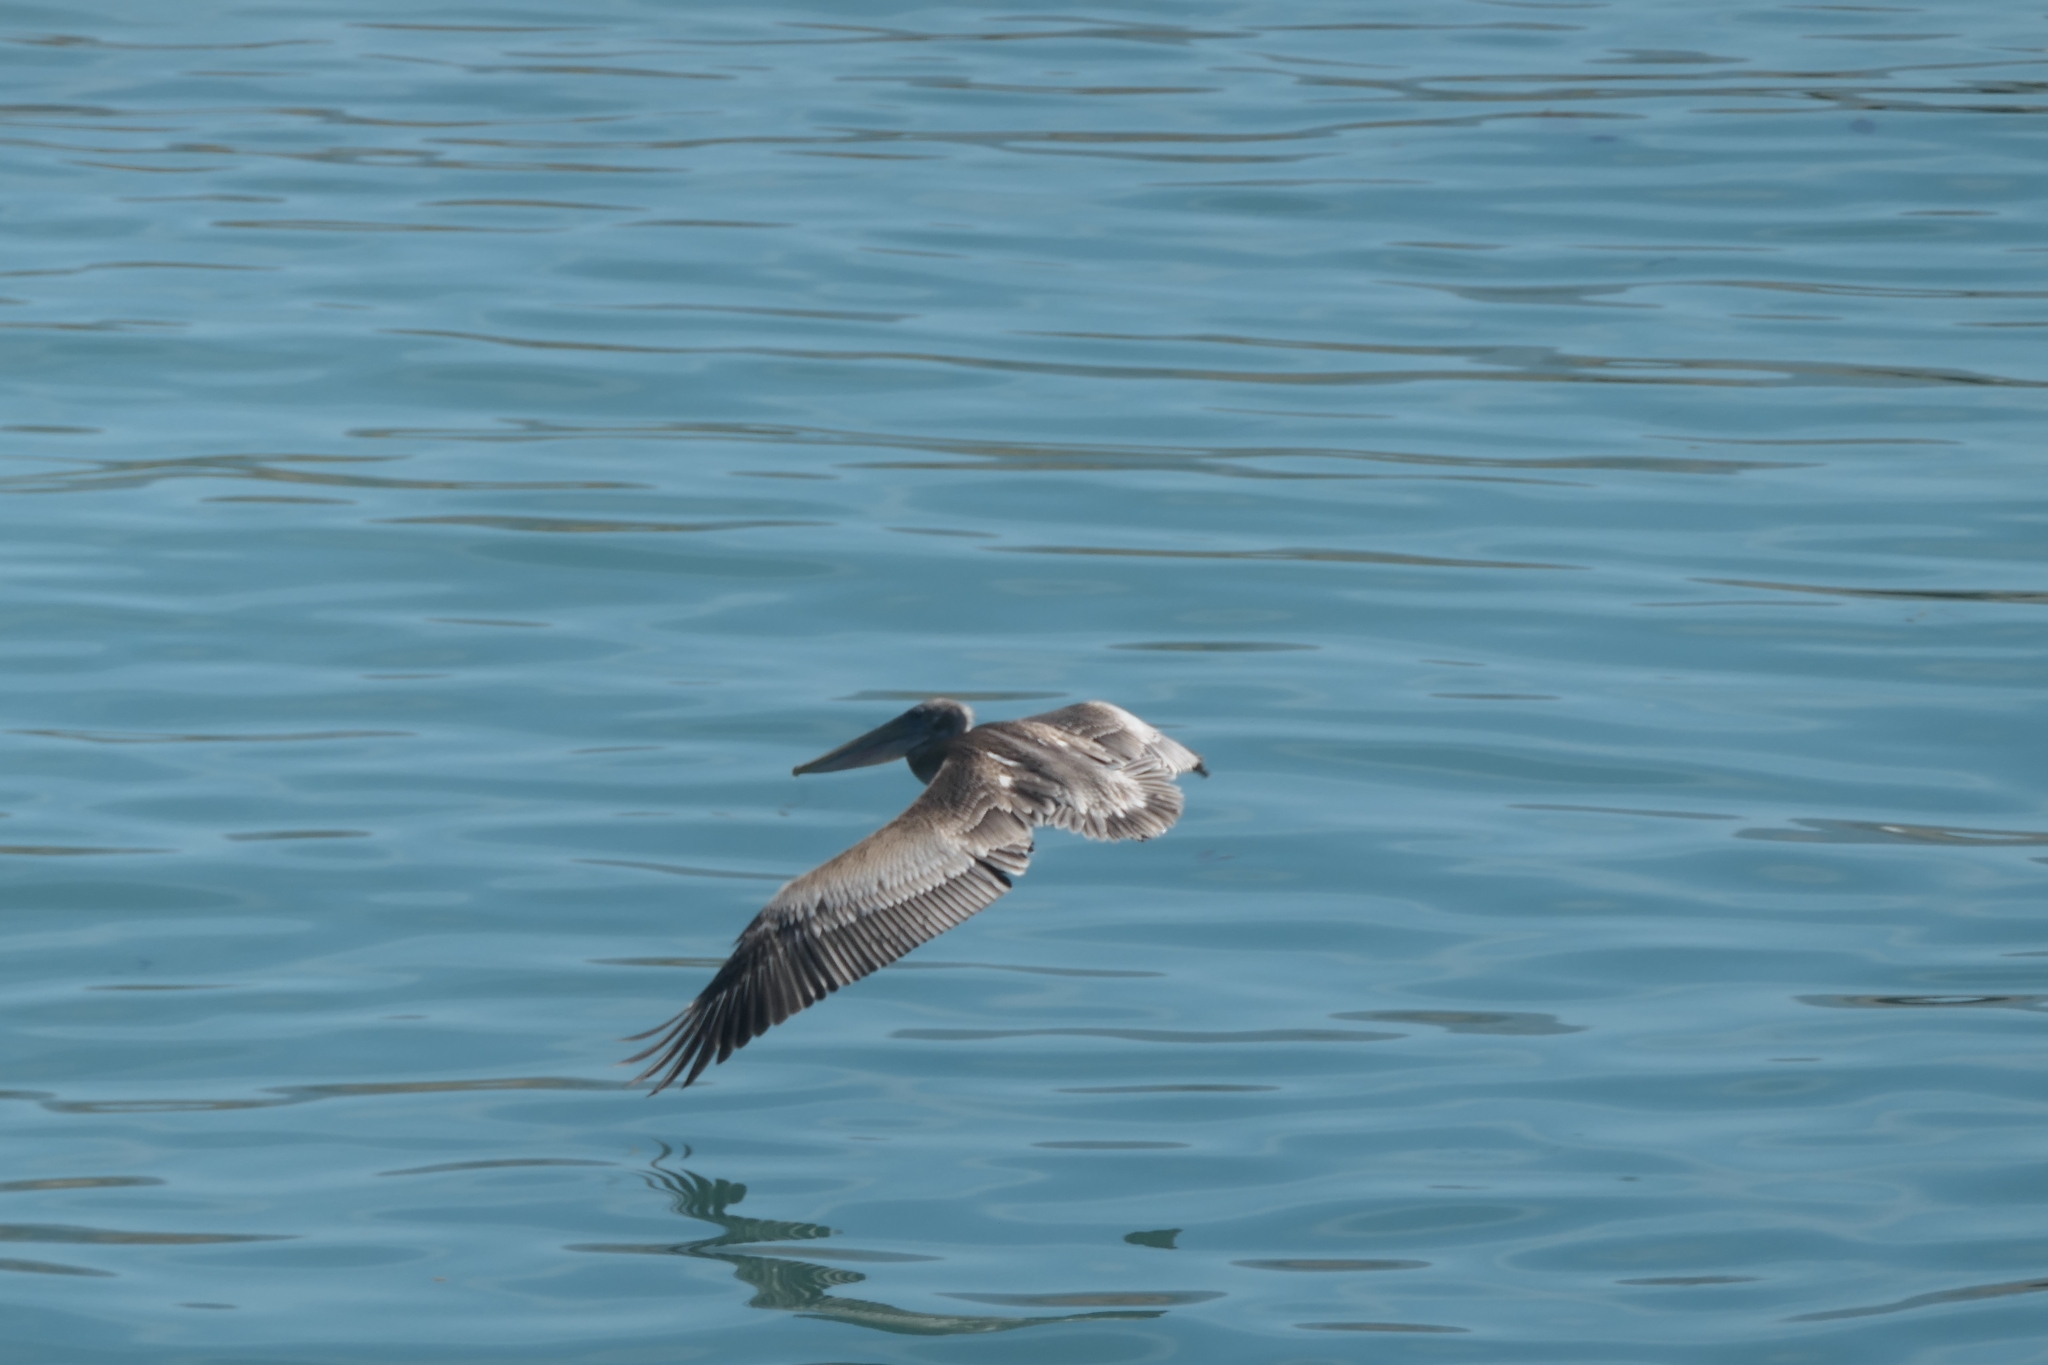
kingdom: Animalia
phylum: Chordata
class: Aves
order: Pelecaniformes
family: Pelecanidae
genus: Pelecanus
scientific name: Pelecanus occidentalis
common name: Brown pelican
